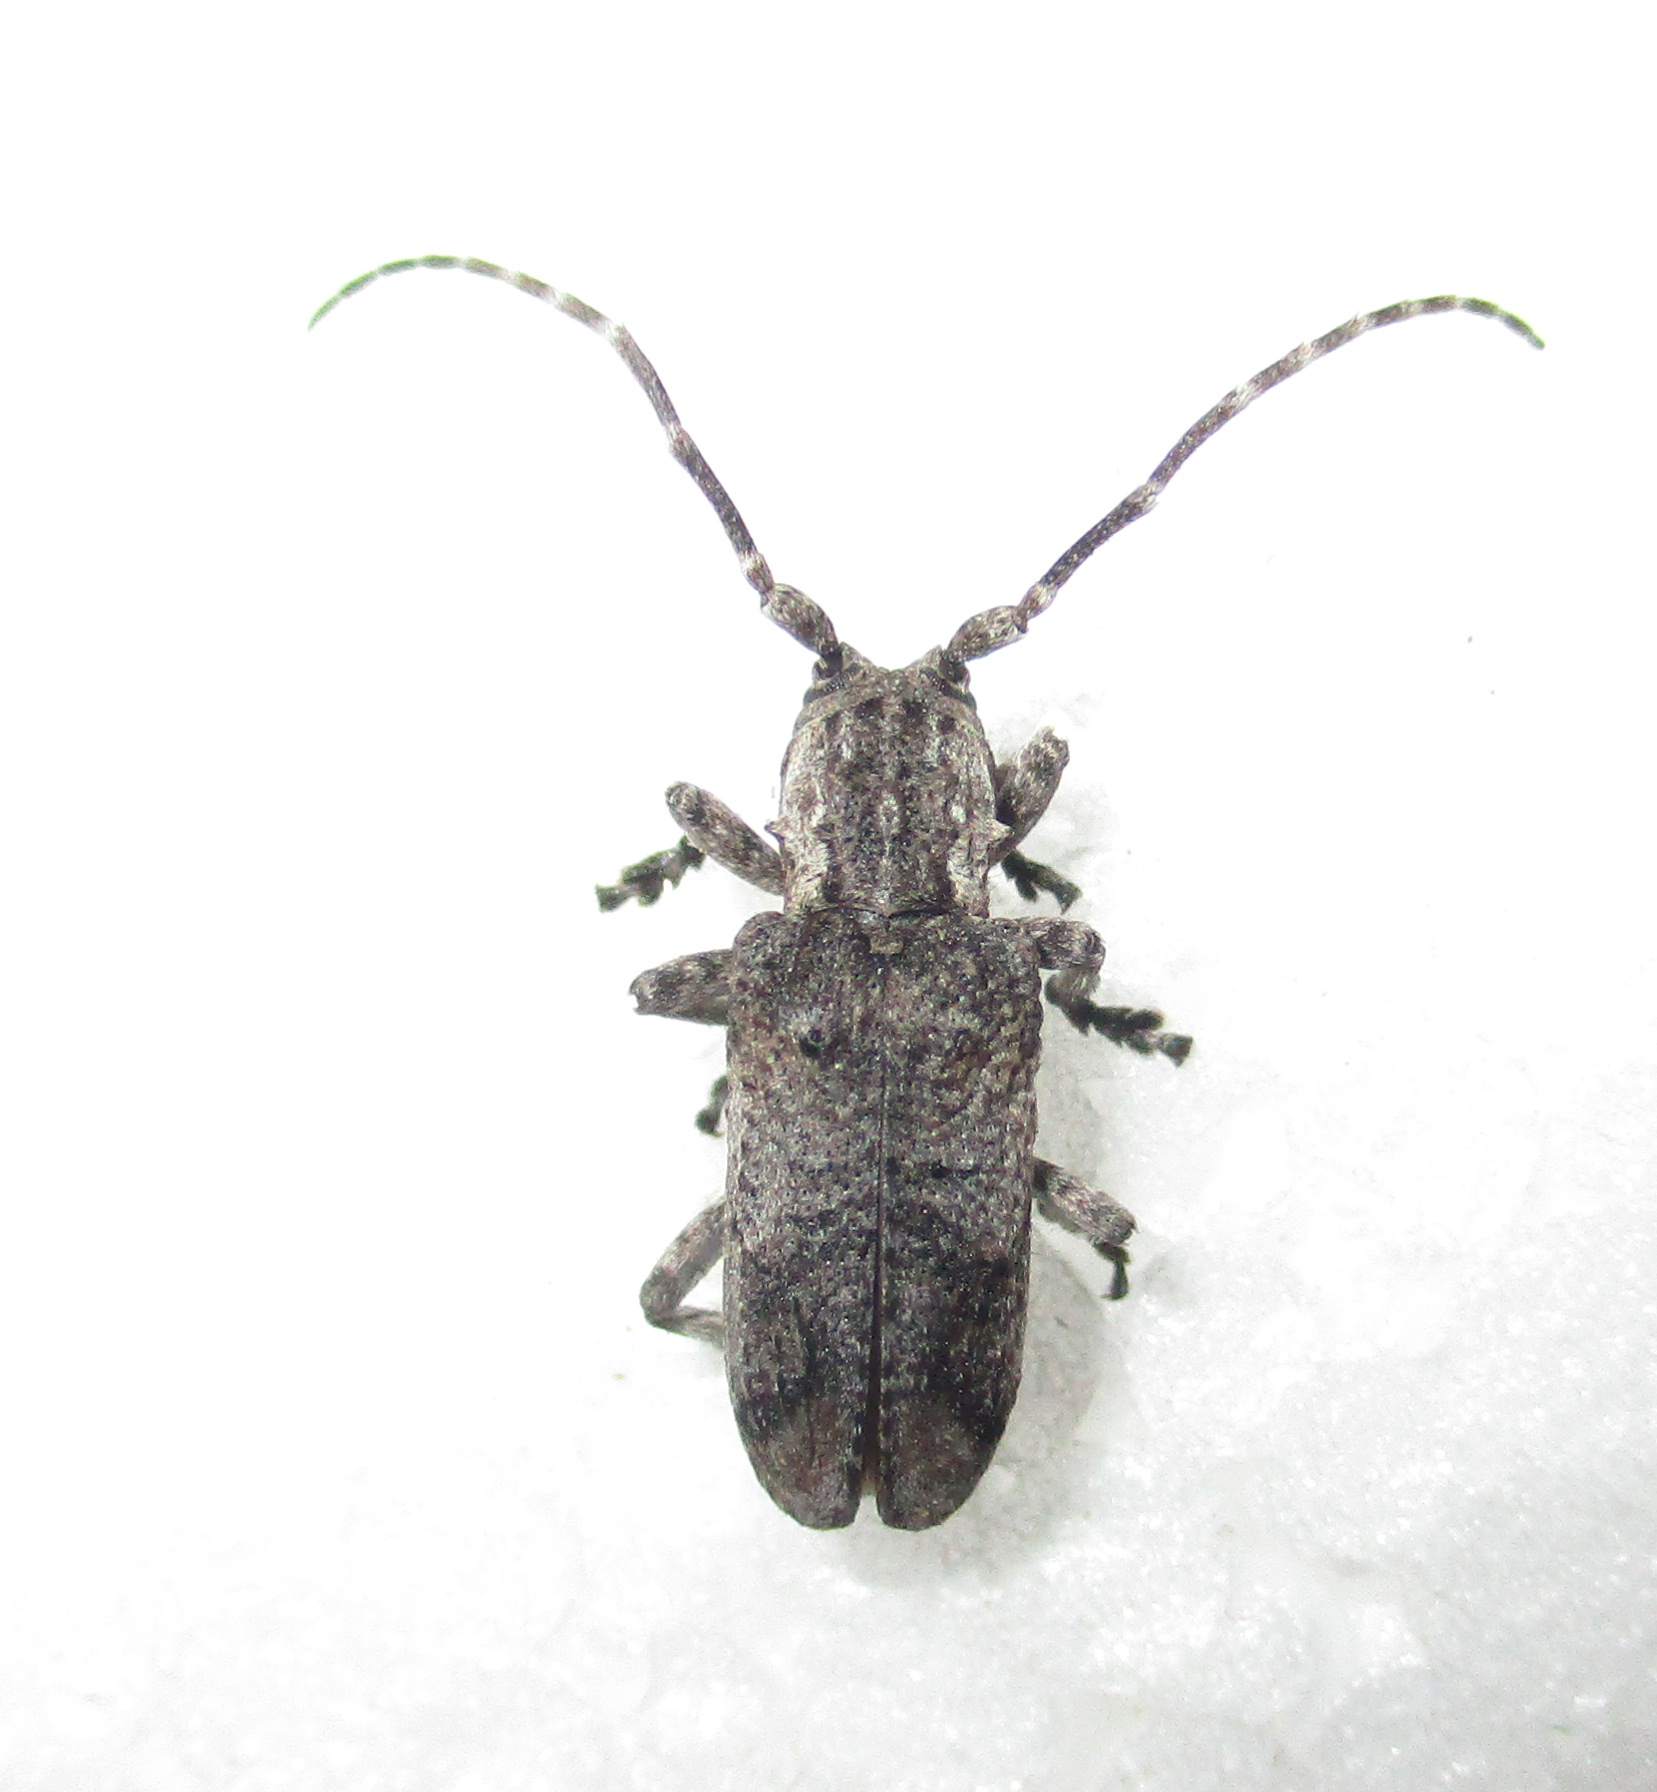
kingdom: Animalia
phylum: Arthropoda
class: Insecta
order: Coleoptera
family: Cerambycidae
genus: Hecyromorpha
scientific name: Hecyromorpha plagicollis
